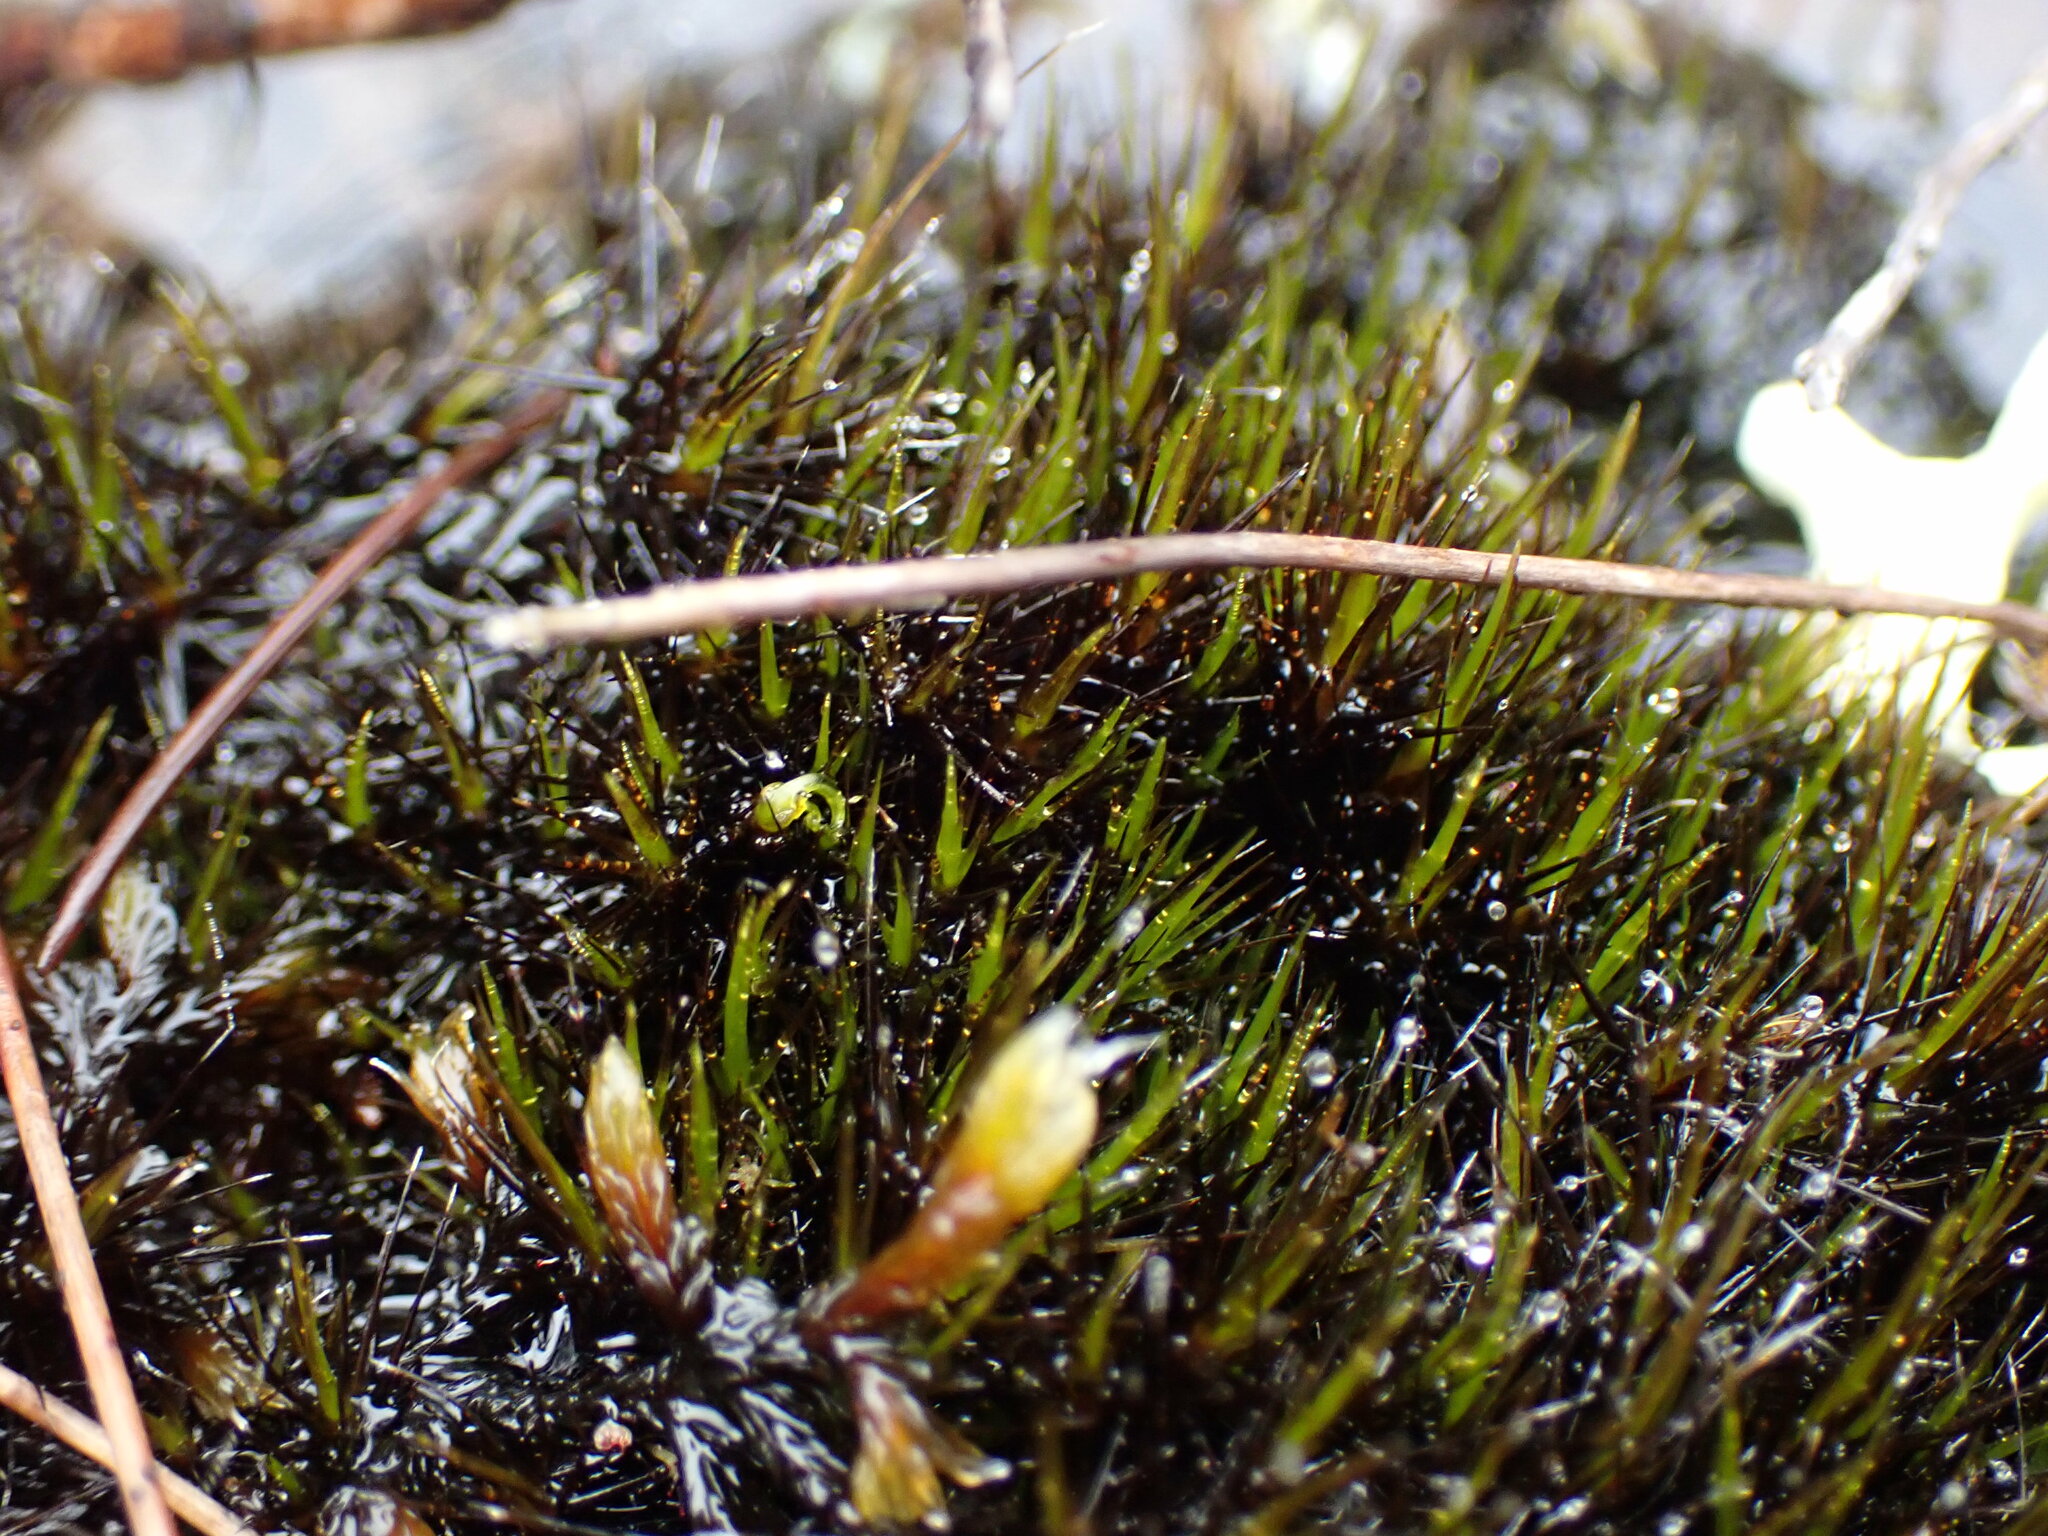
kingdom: Plantae
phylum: Bryophyta
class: Bryopsida
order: Dicranales
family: Leucobryaceae
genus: Campylopus
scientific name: Campylopus atrovirens
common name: Bristly swan-neck moss
